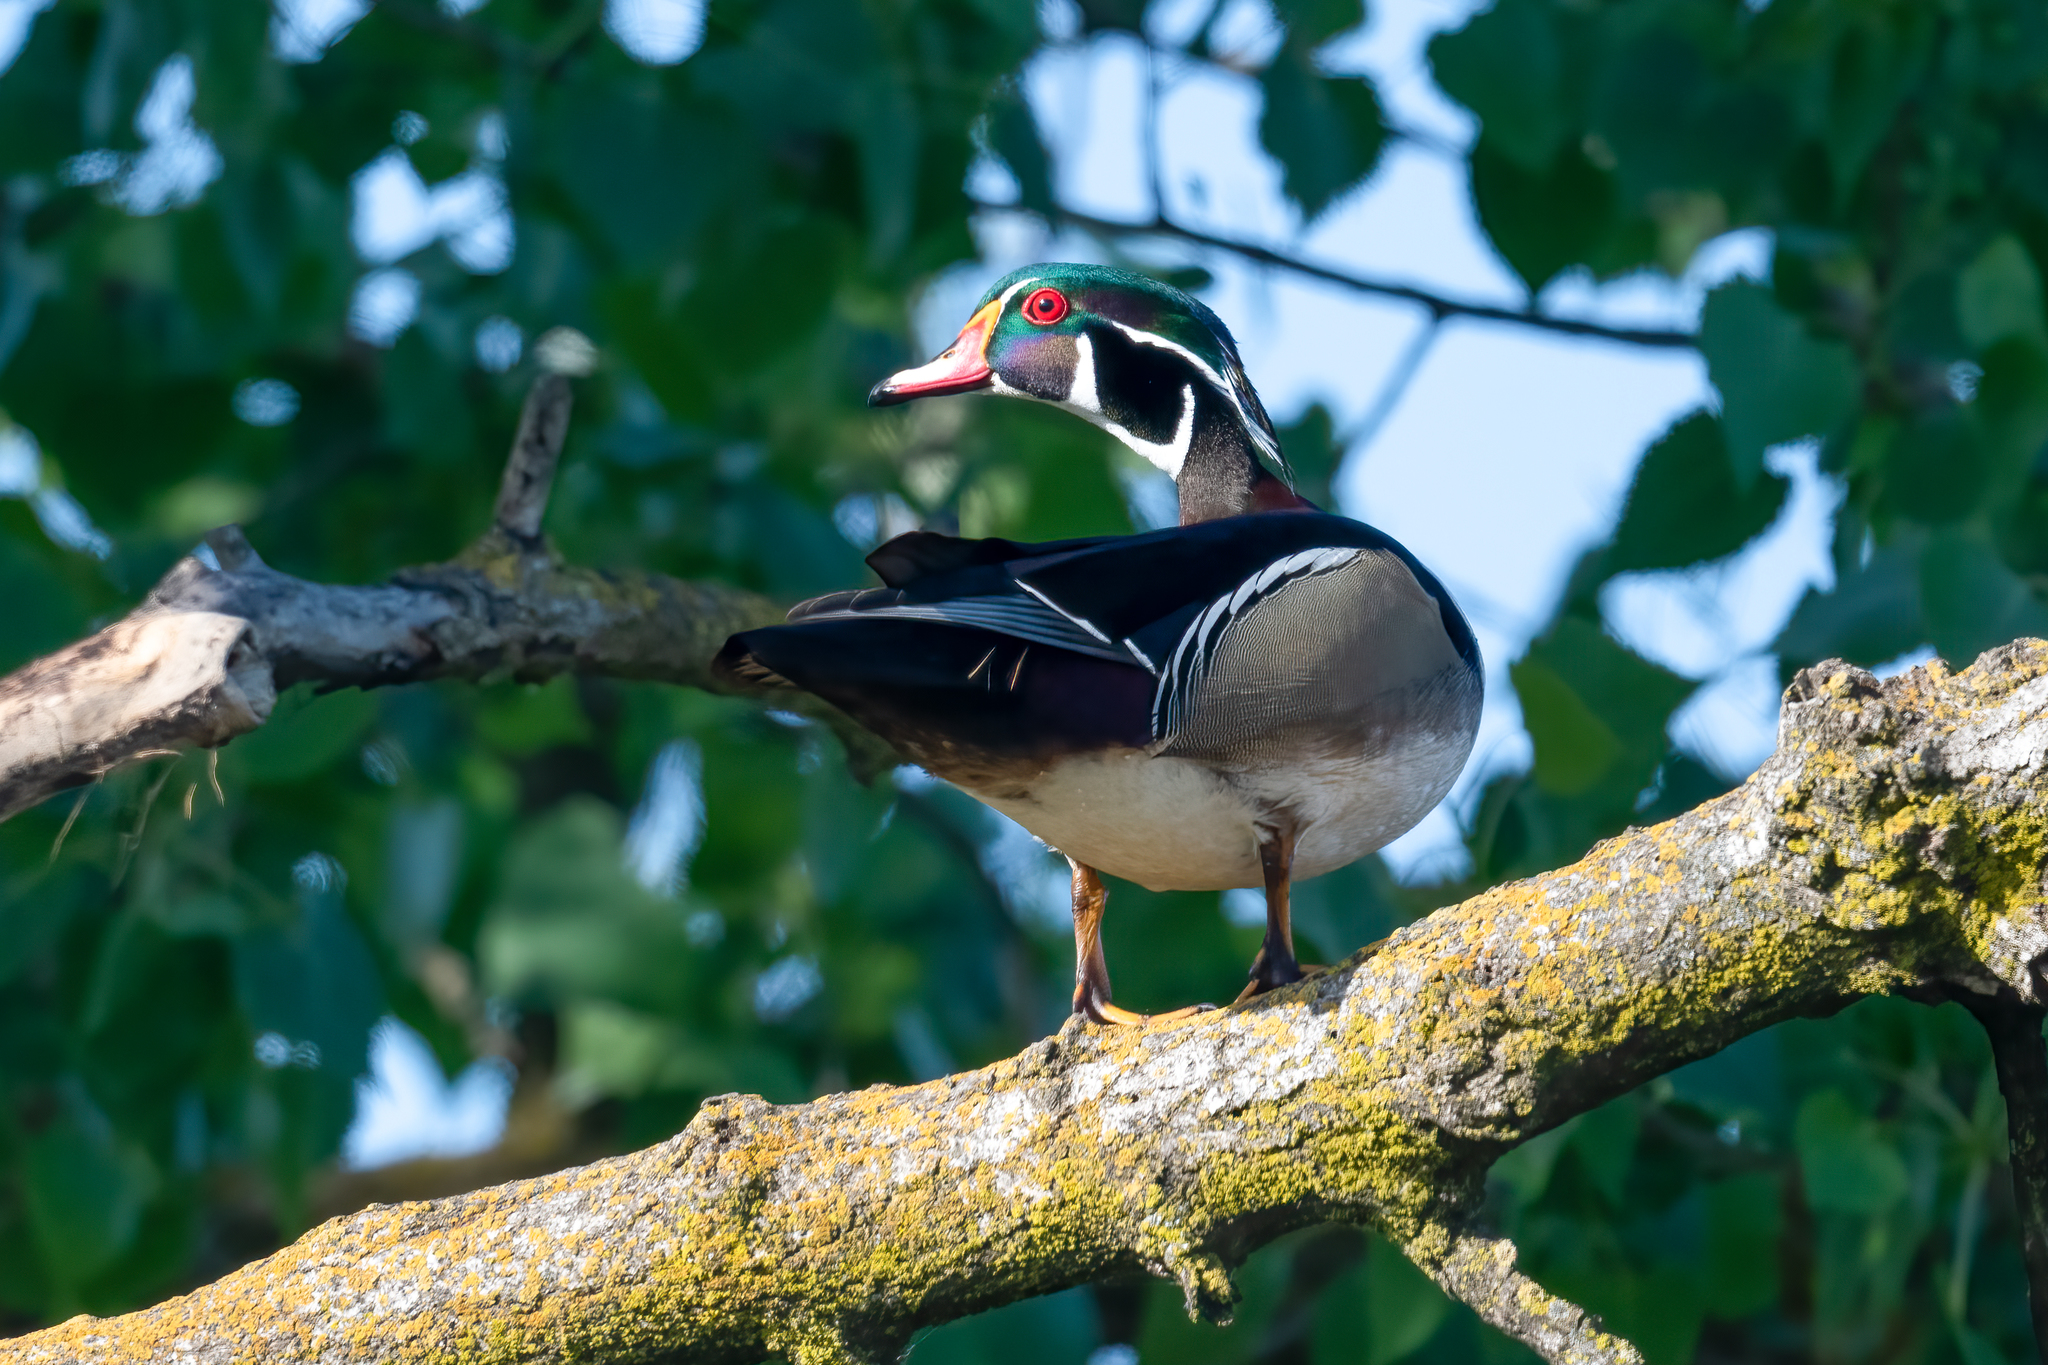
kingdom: Animalia
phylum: Chordata
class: Aves
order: Anseriformes
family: Anatidae
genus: Aix
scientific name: Aix sponsa
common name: Wood duck
